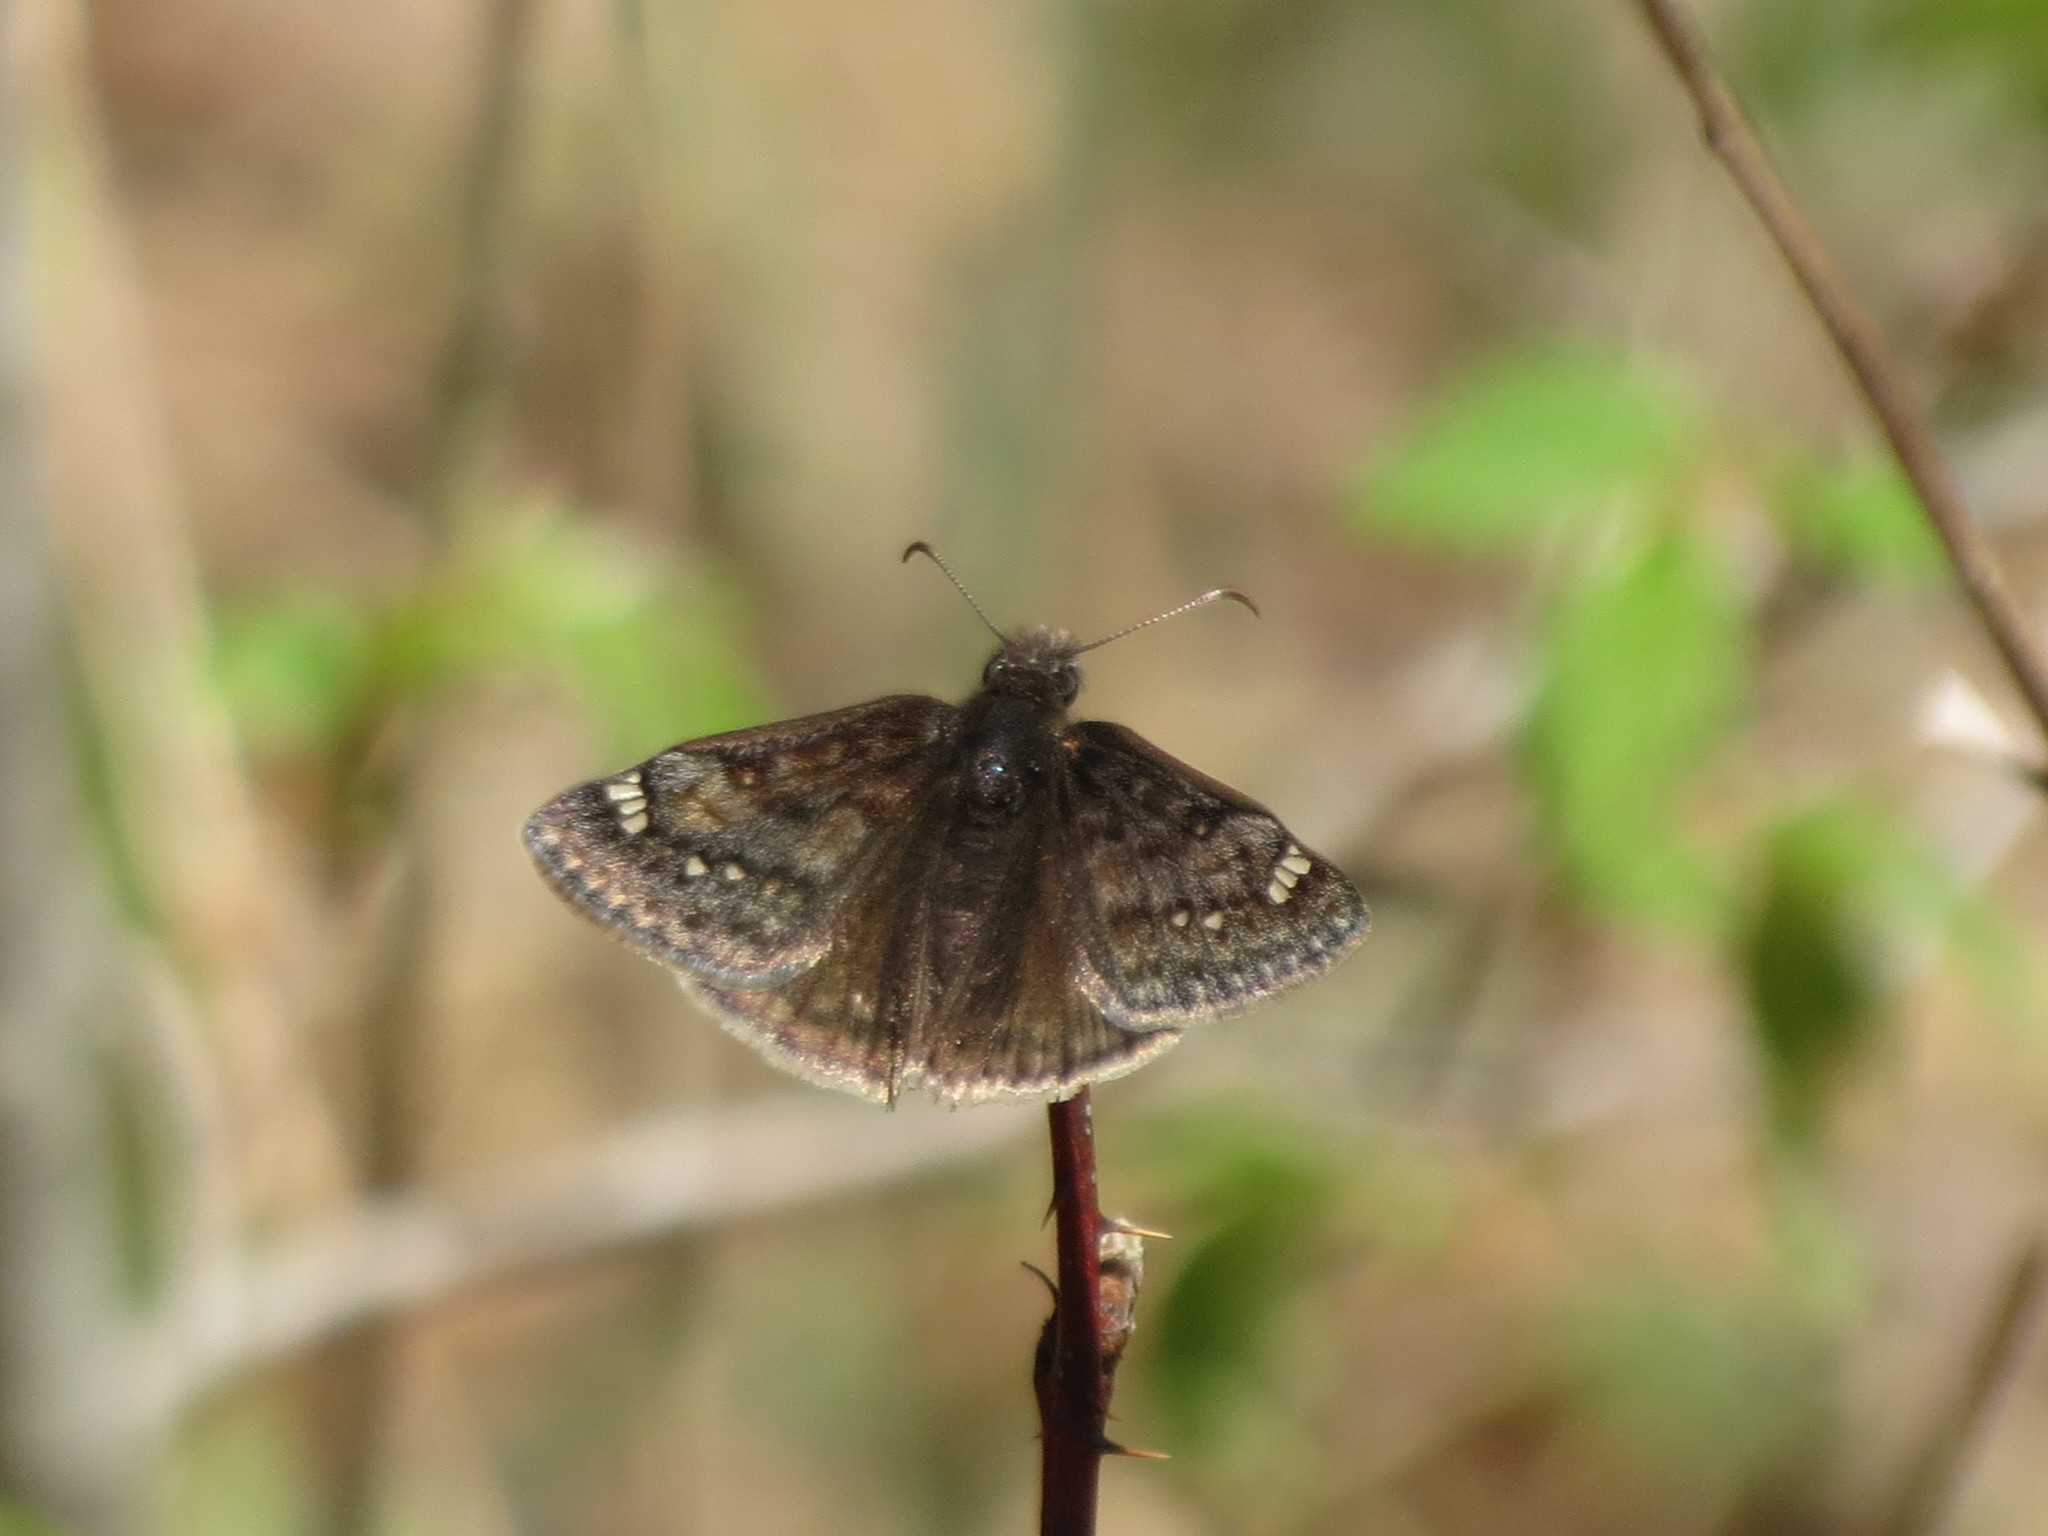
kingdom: Animalia
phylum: Arthropoda
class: Insecta
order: Lepidoptera
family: Hesperiidae
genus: Erynnis
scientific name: Erynnis juvenalis
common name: Juvenal's duskywing
